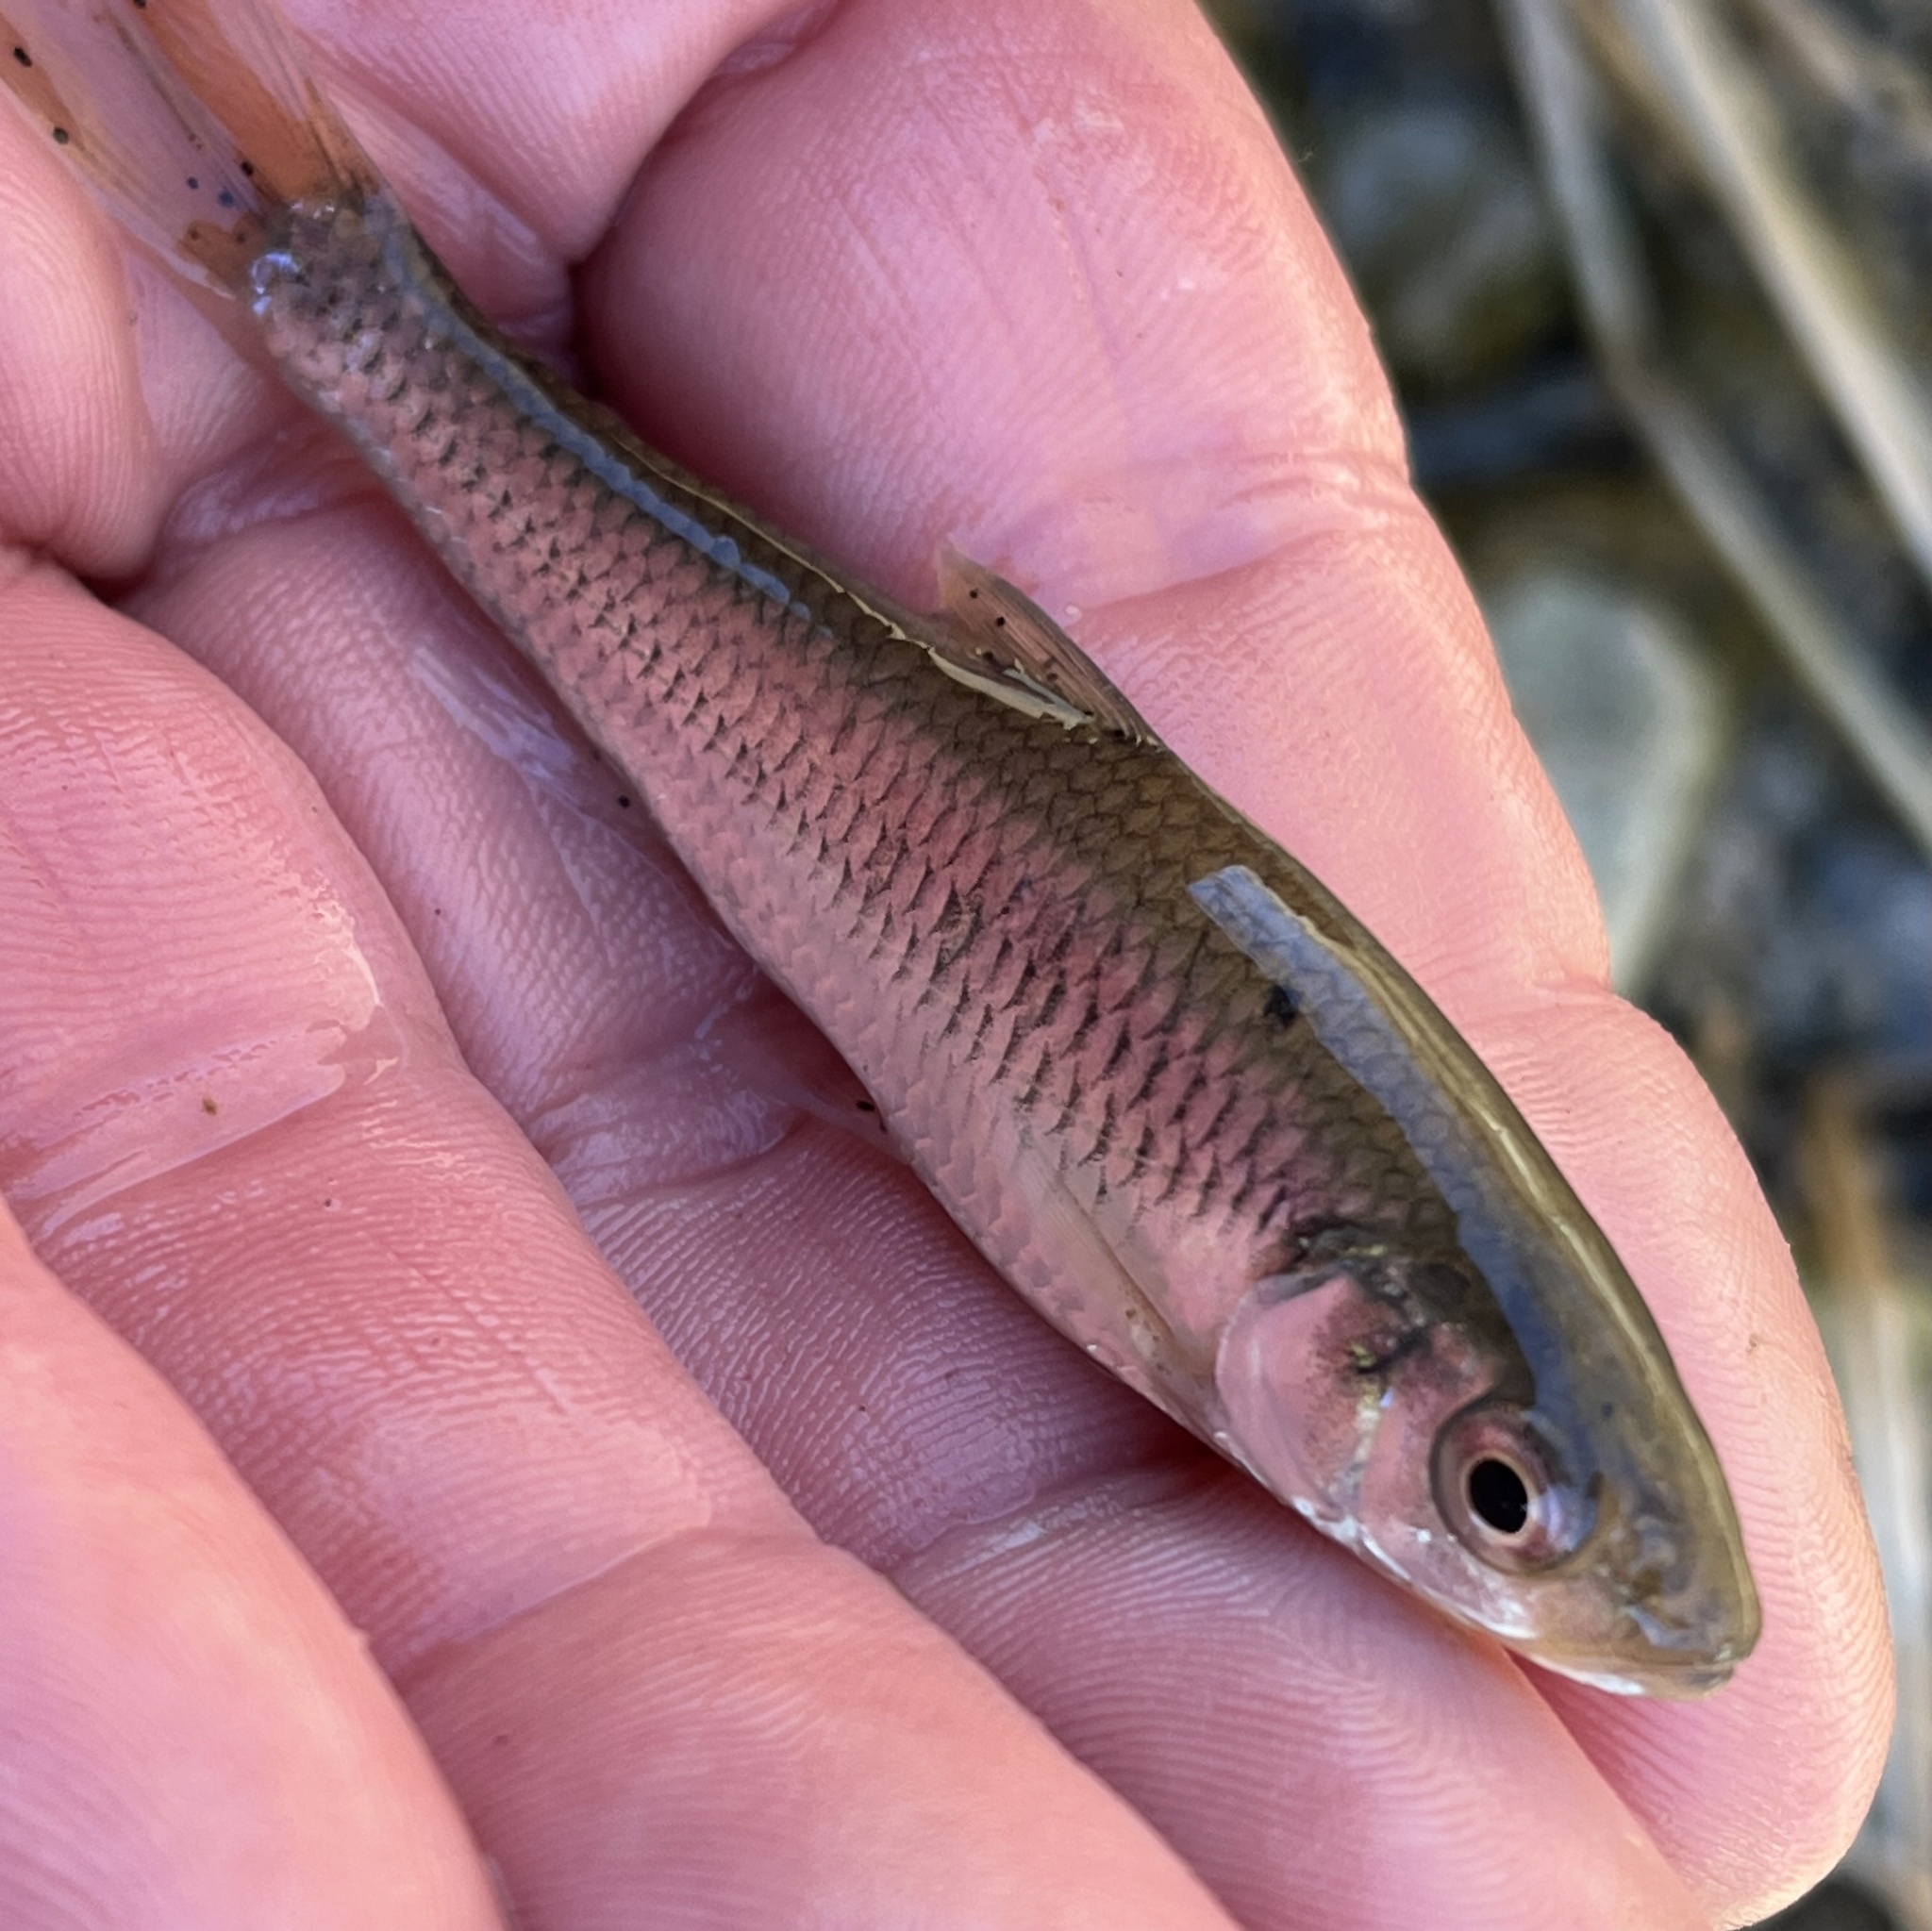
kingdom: Animalia
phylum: Chordata
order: Cypriniformes
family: Cyprinidae
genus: Luxilus
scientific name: Luxilus chrysocephalus
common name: Striped shiner
